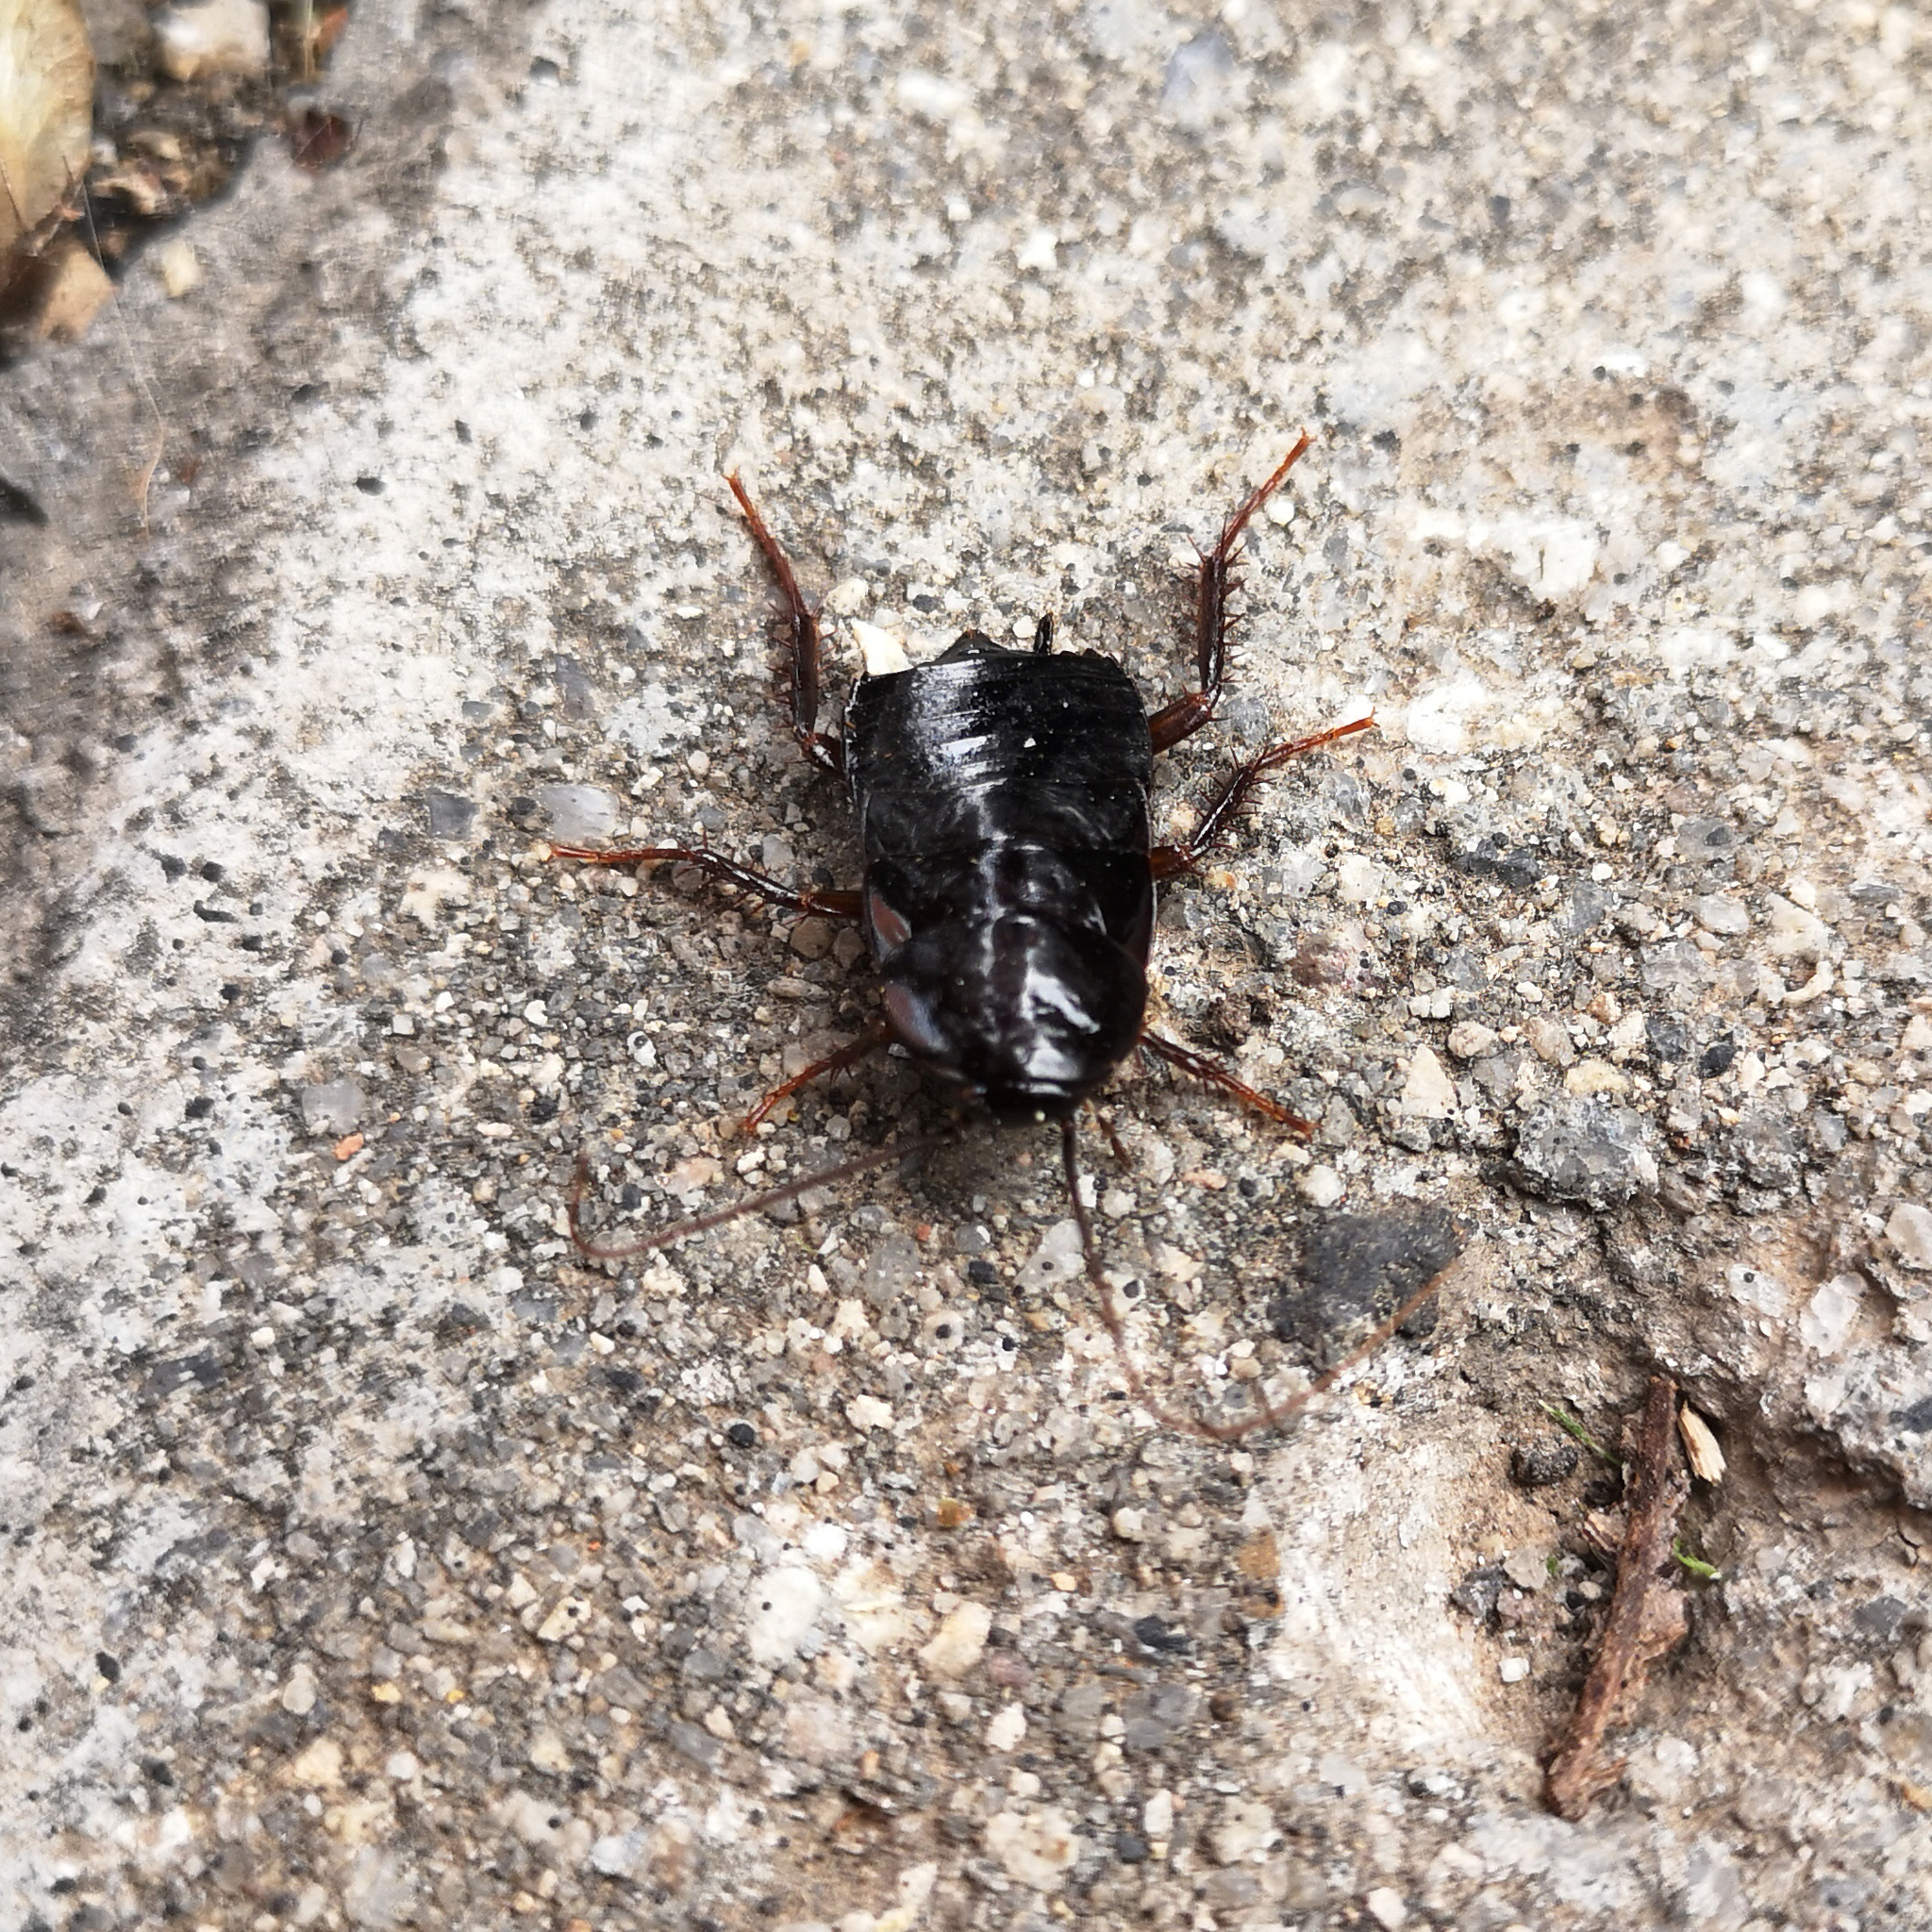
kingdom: Animalia
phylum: Arthropoda
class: Insecta
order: Blattodea
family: Blattidae
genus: Blatta
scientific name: Blatta orientalis
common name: Oriental cockroach
